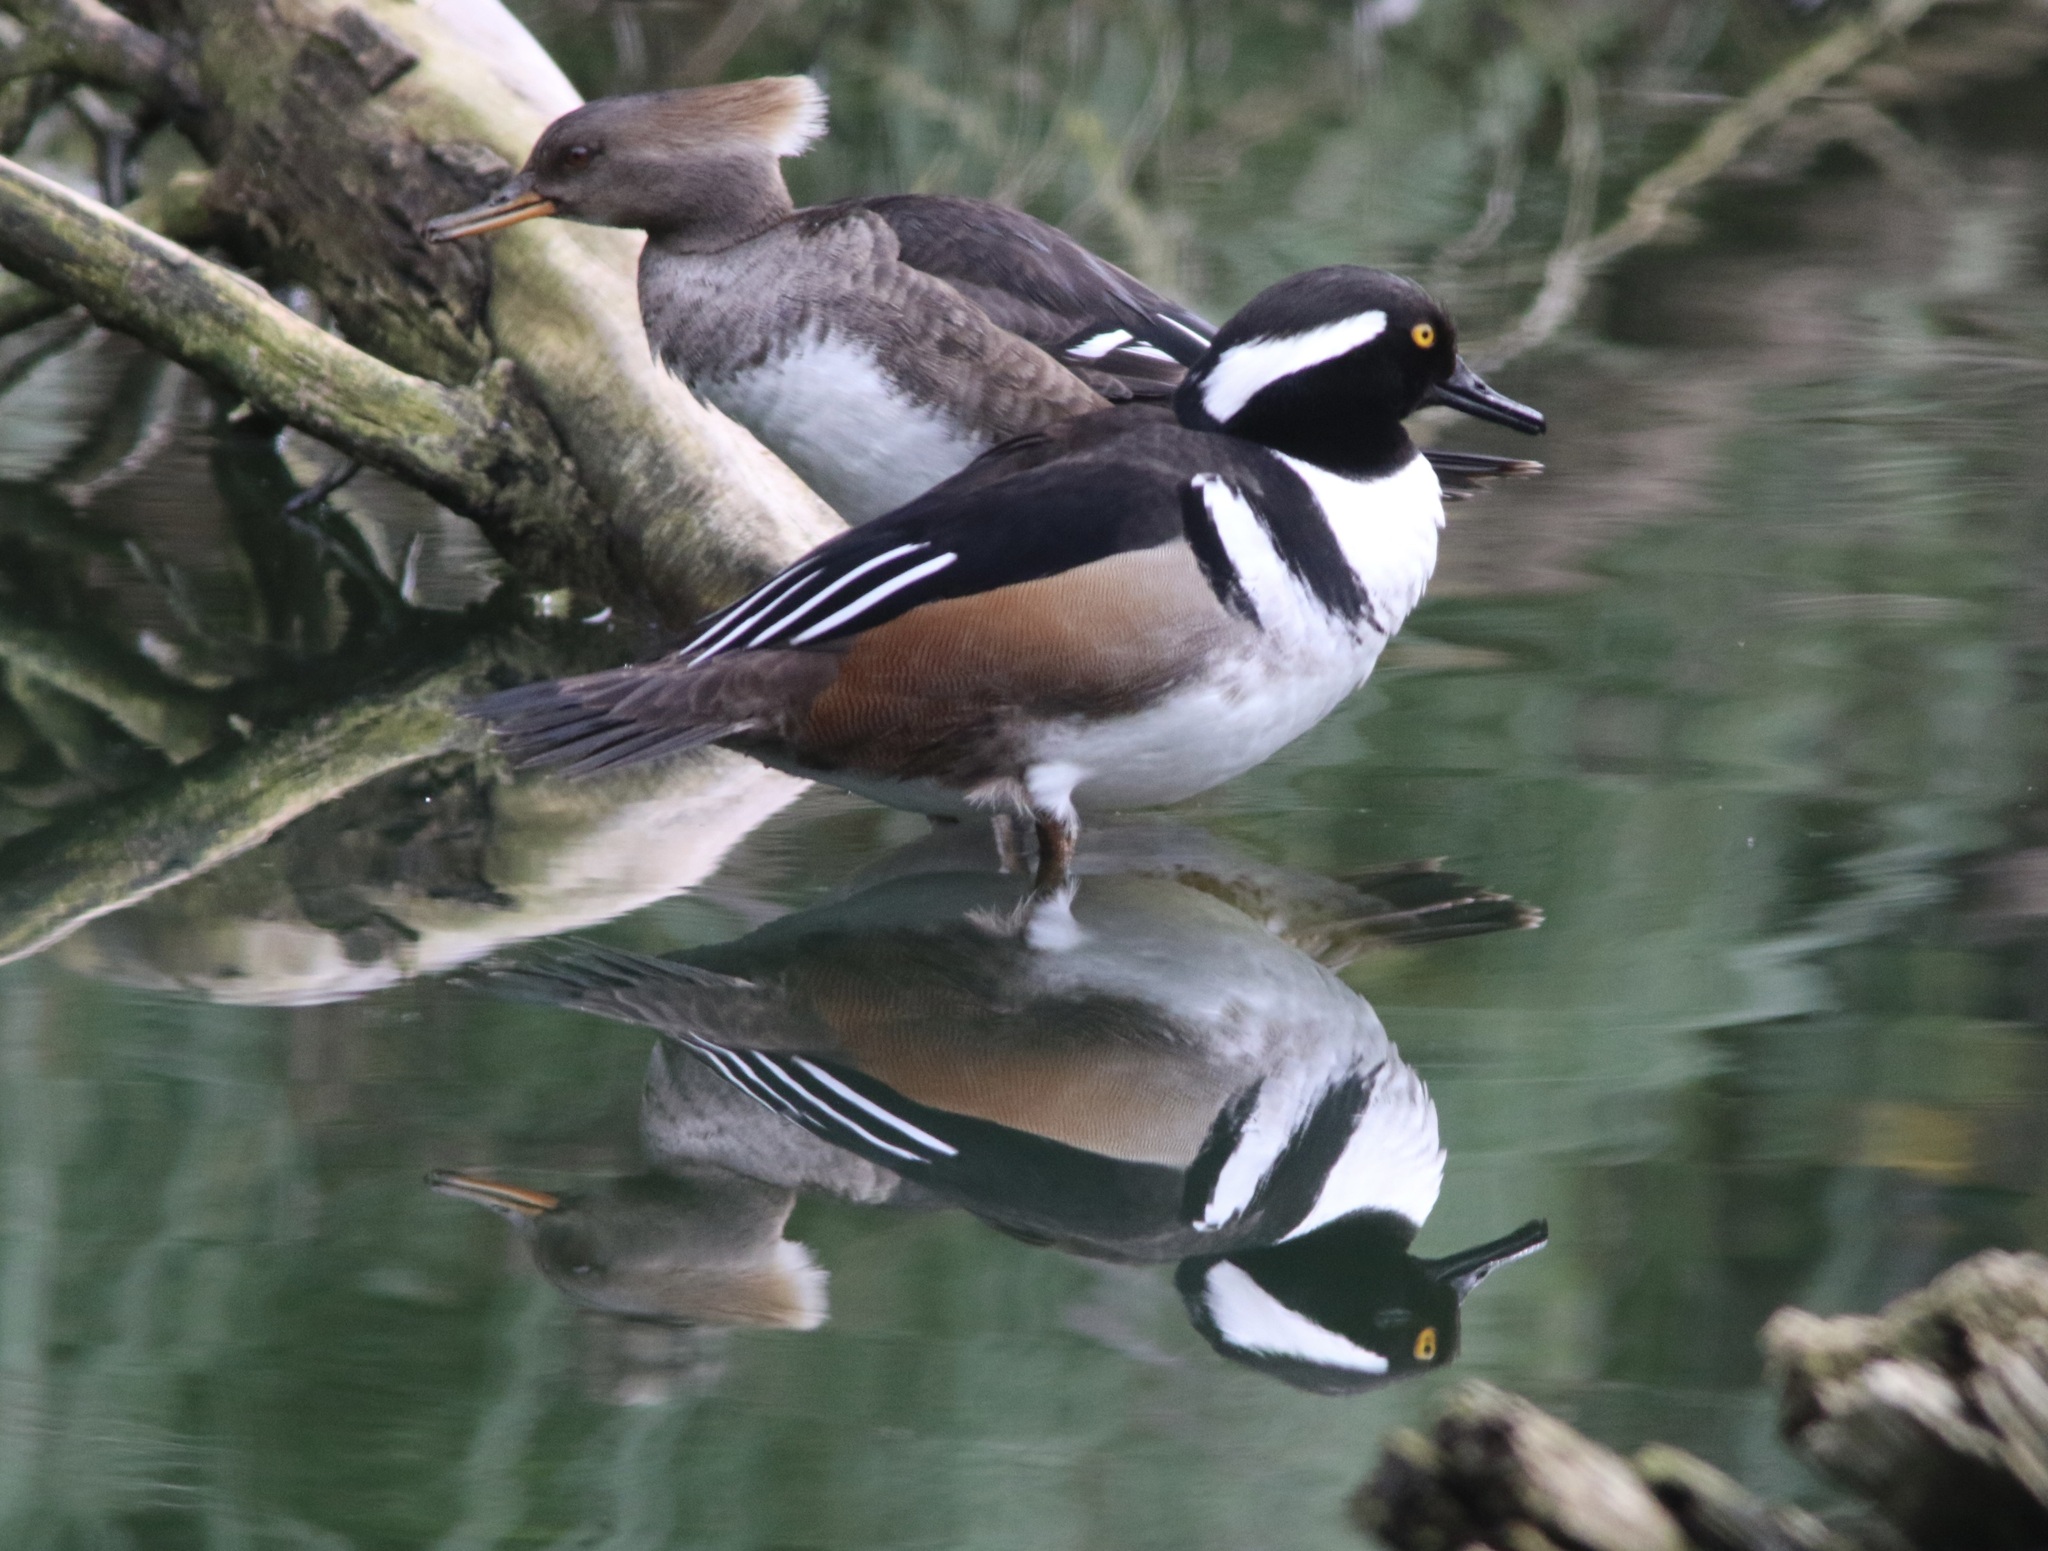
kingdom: Animalia
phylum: Chordata
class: Aves
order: Anseriformes
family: Anatidae
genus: Lophodytes
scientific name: Lophodytes cucullatus
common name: Hooded merganser
